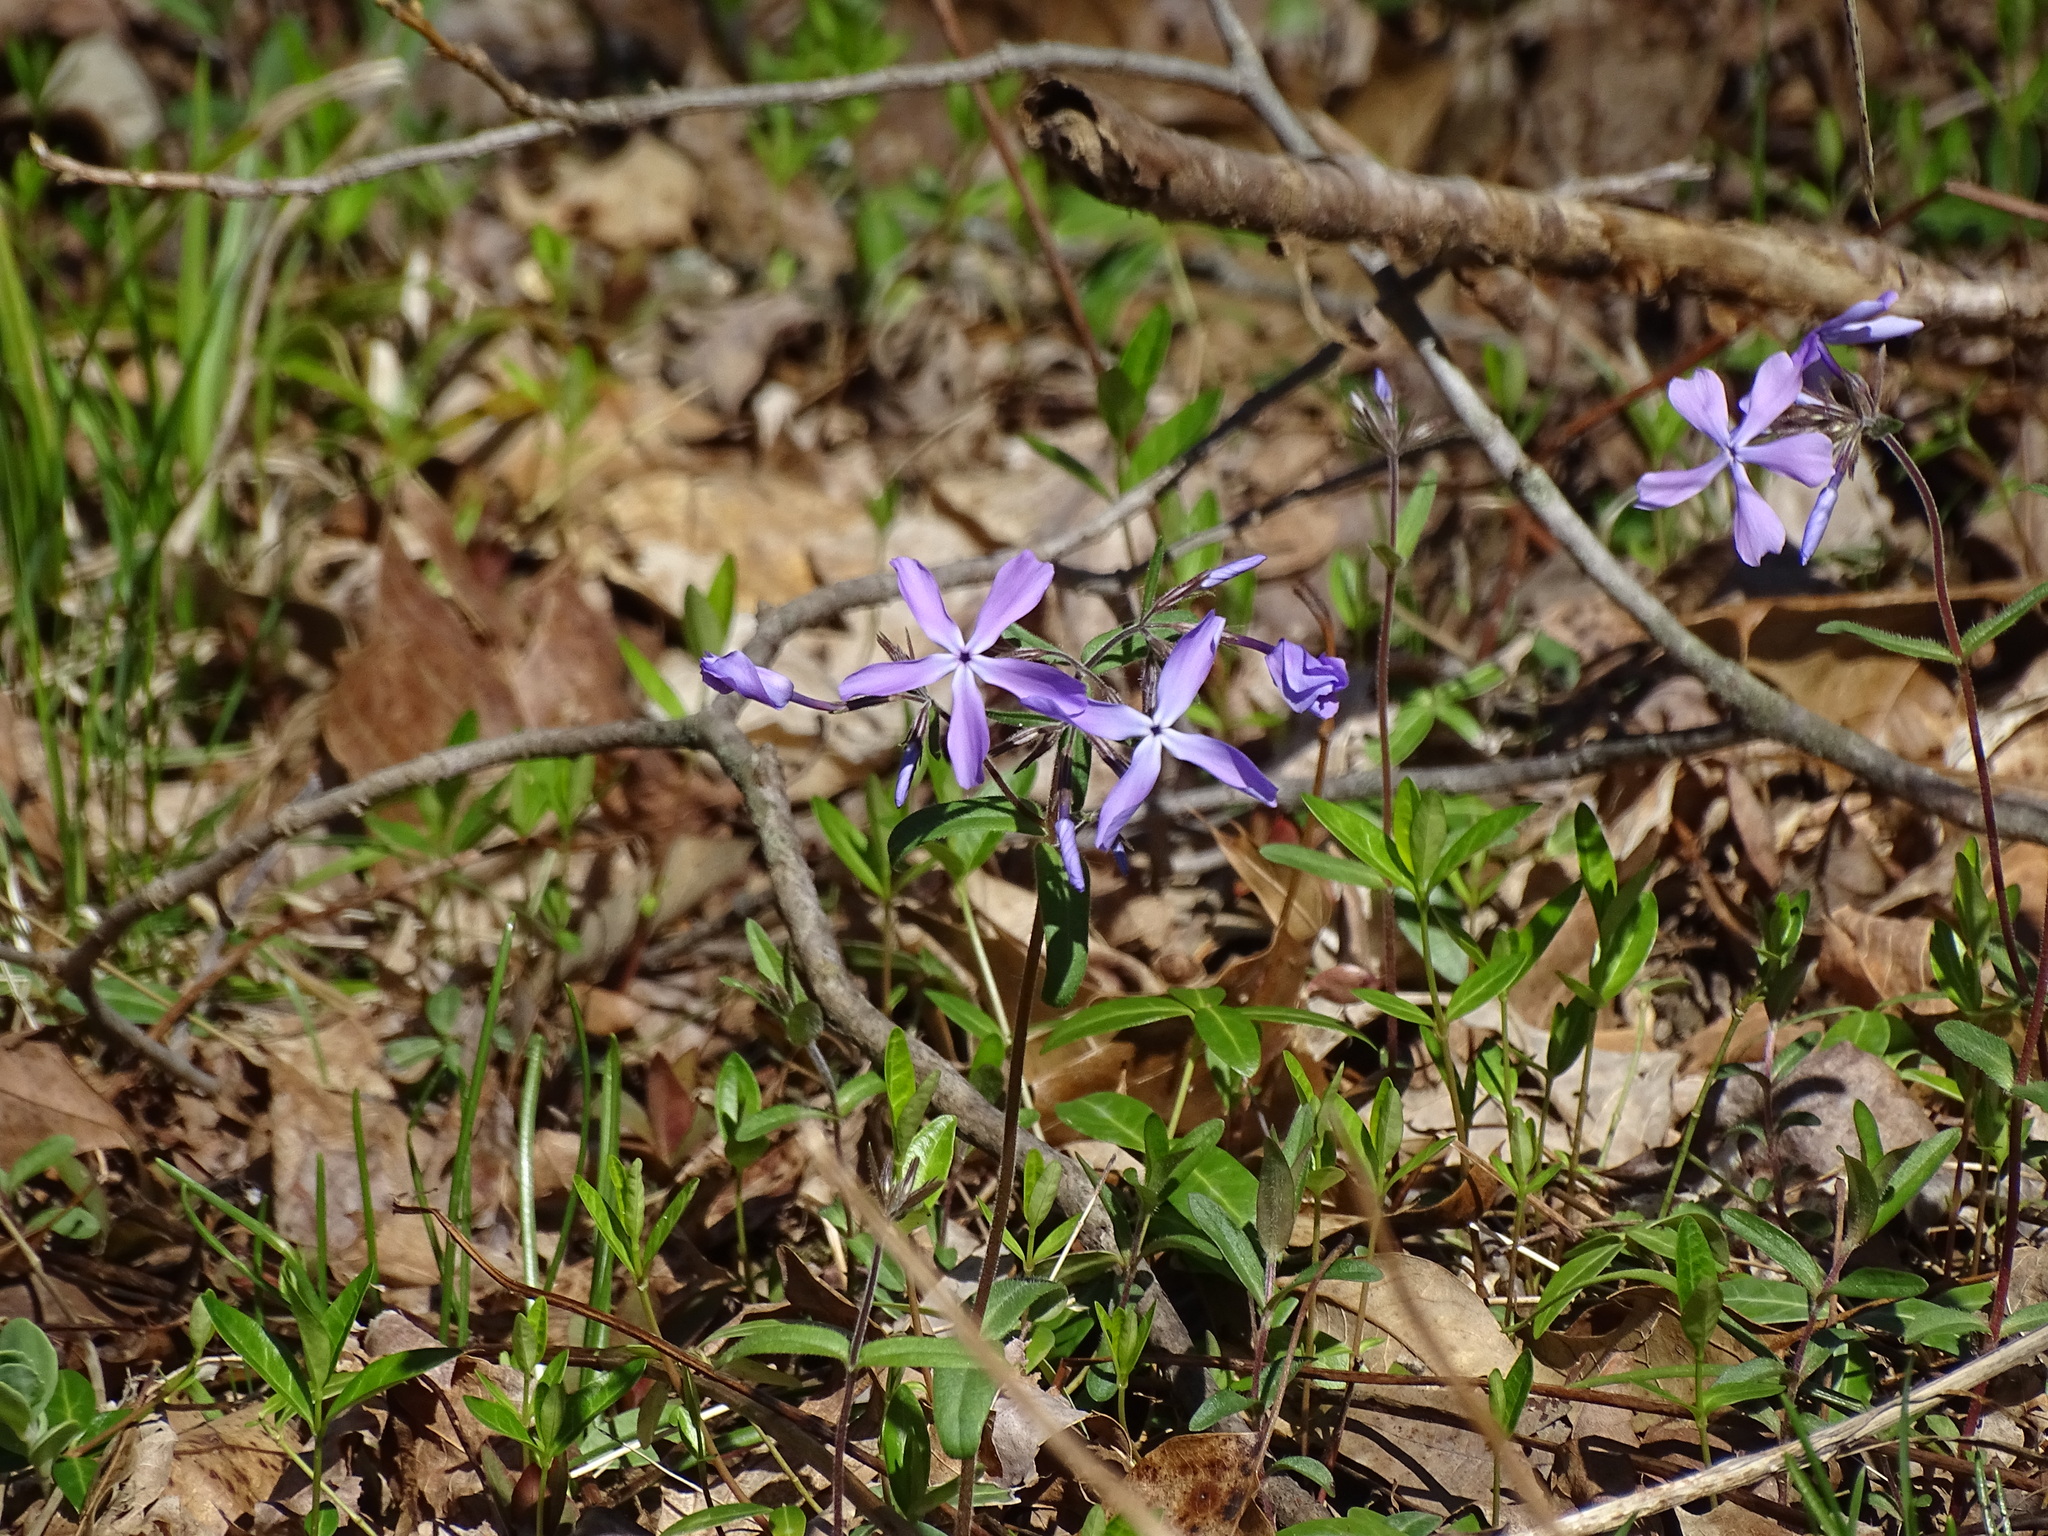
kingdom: Plantae
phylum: Tracheophyta
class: Magnoliopsida
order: Ericales
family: Polemoniaceae
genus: Phlox
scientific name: Phlox divaricata
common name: Blue phlox
